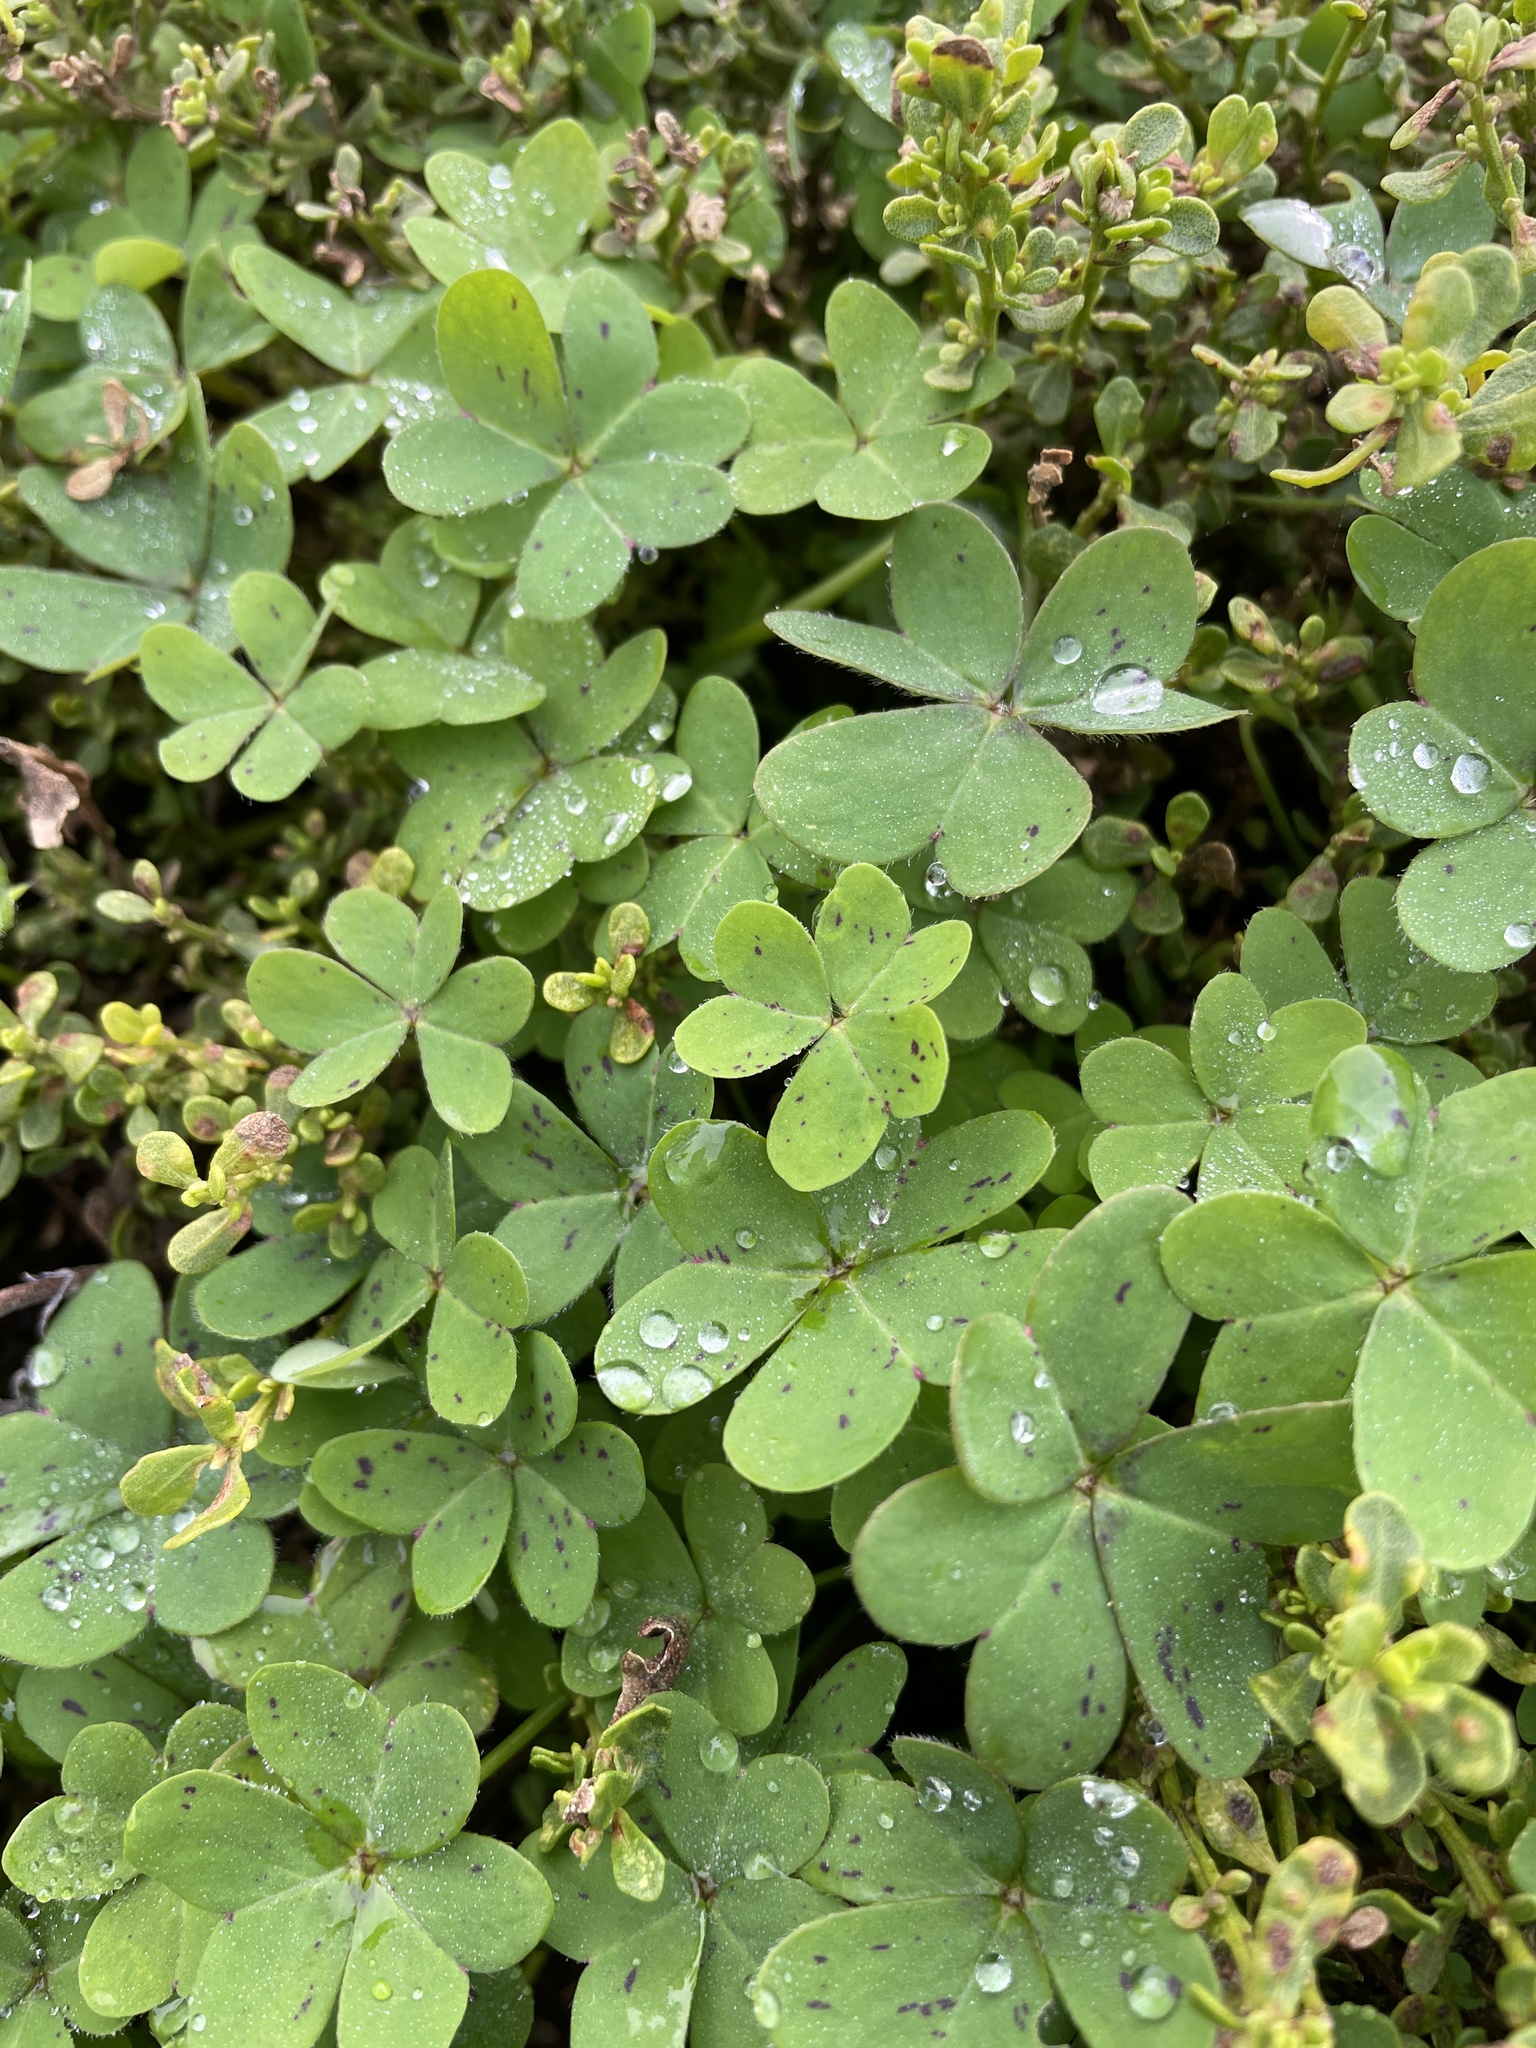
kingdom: Plantae
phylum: Tracheophyta
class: Magnoliopsida
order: Oxalidales
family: Oxalidaceae
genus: Oxalis
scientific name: Oxalis pes-caprae
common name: Bermuda-buttercup
